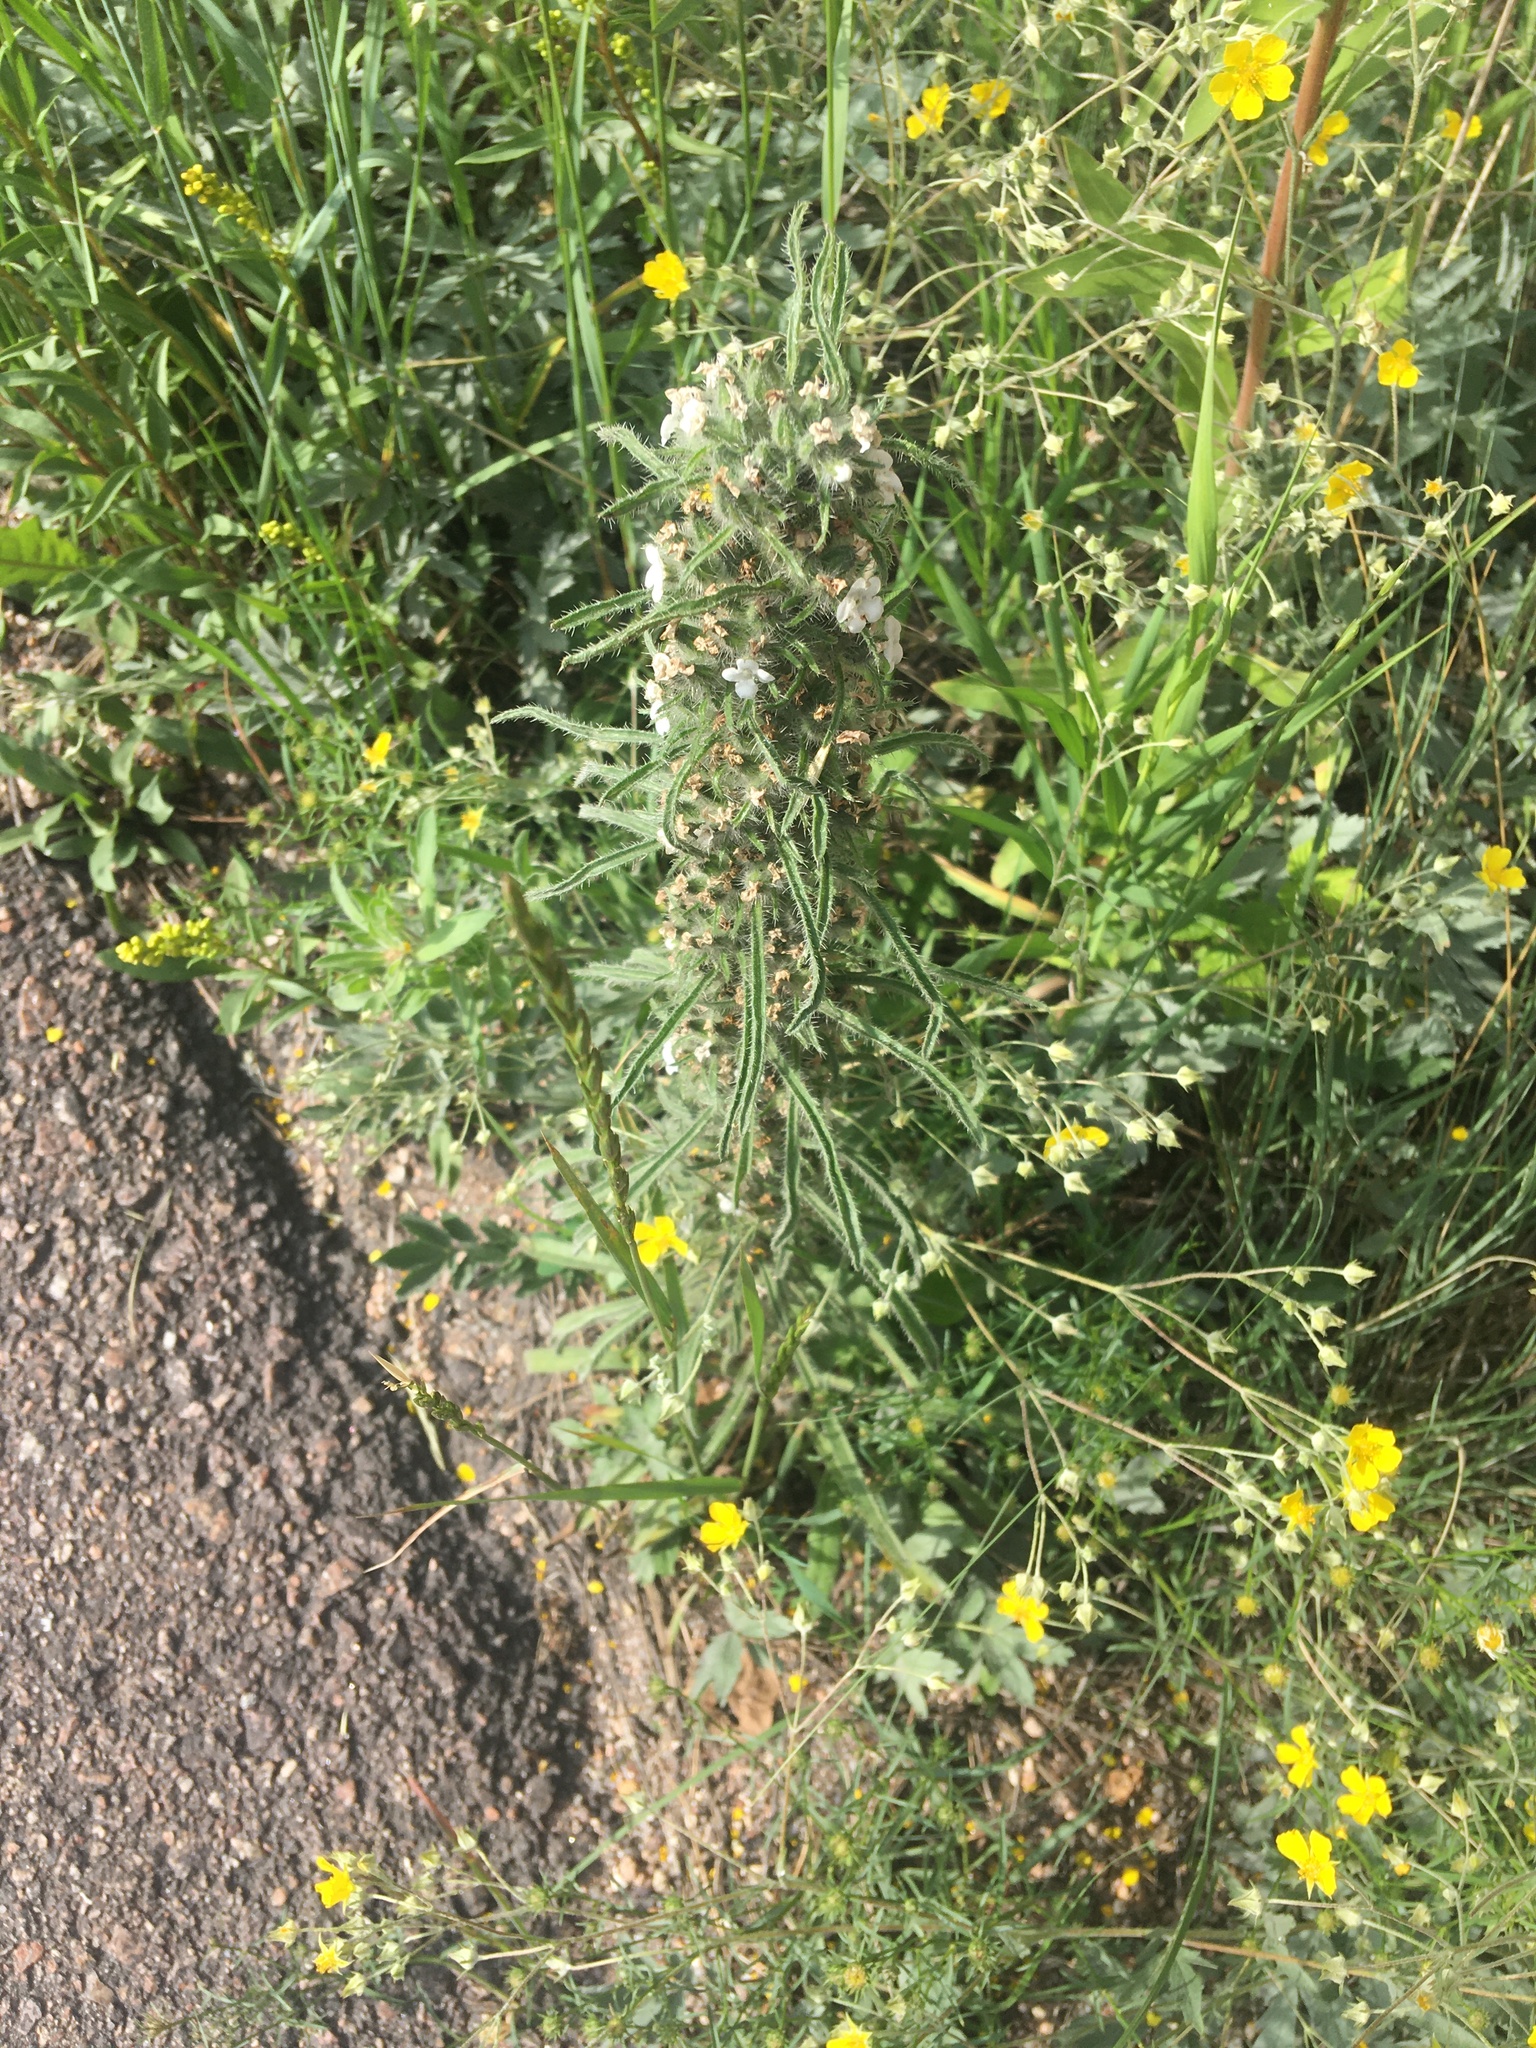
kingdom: Plantae
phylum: Tracheophyta
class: Magnoliopsida
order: Boraginales
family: Boraginaceae
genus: Oreocarya
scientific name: Oreocarya virgata
